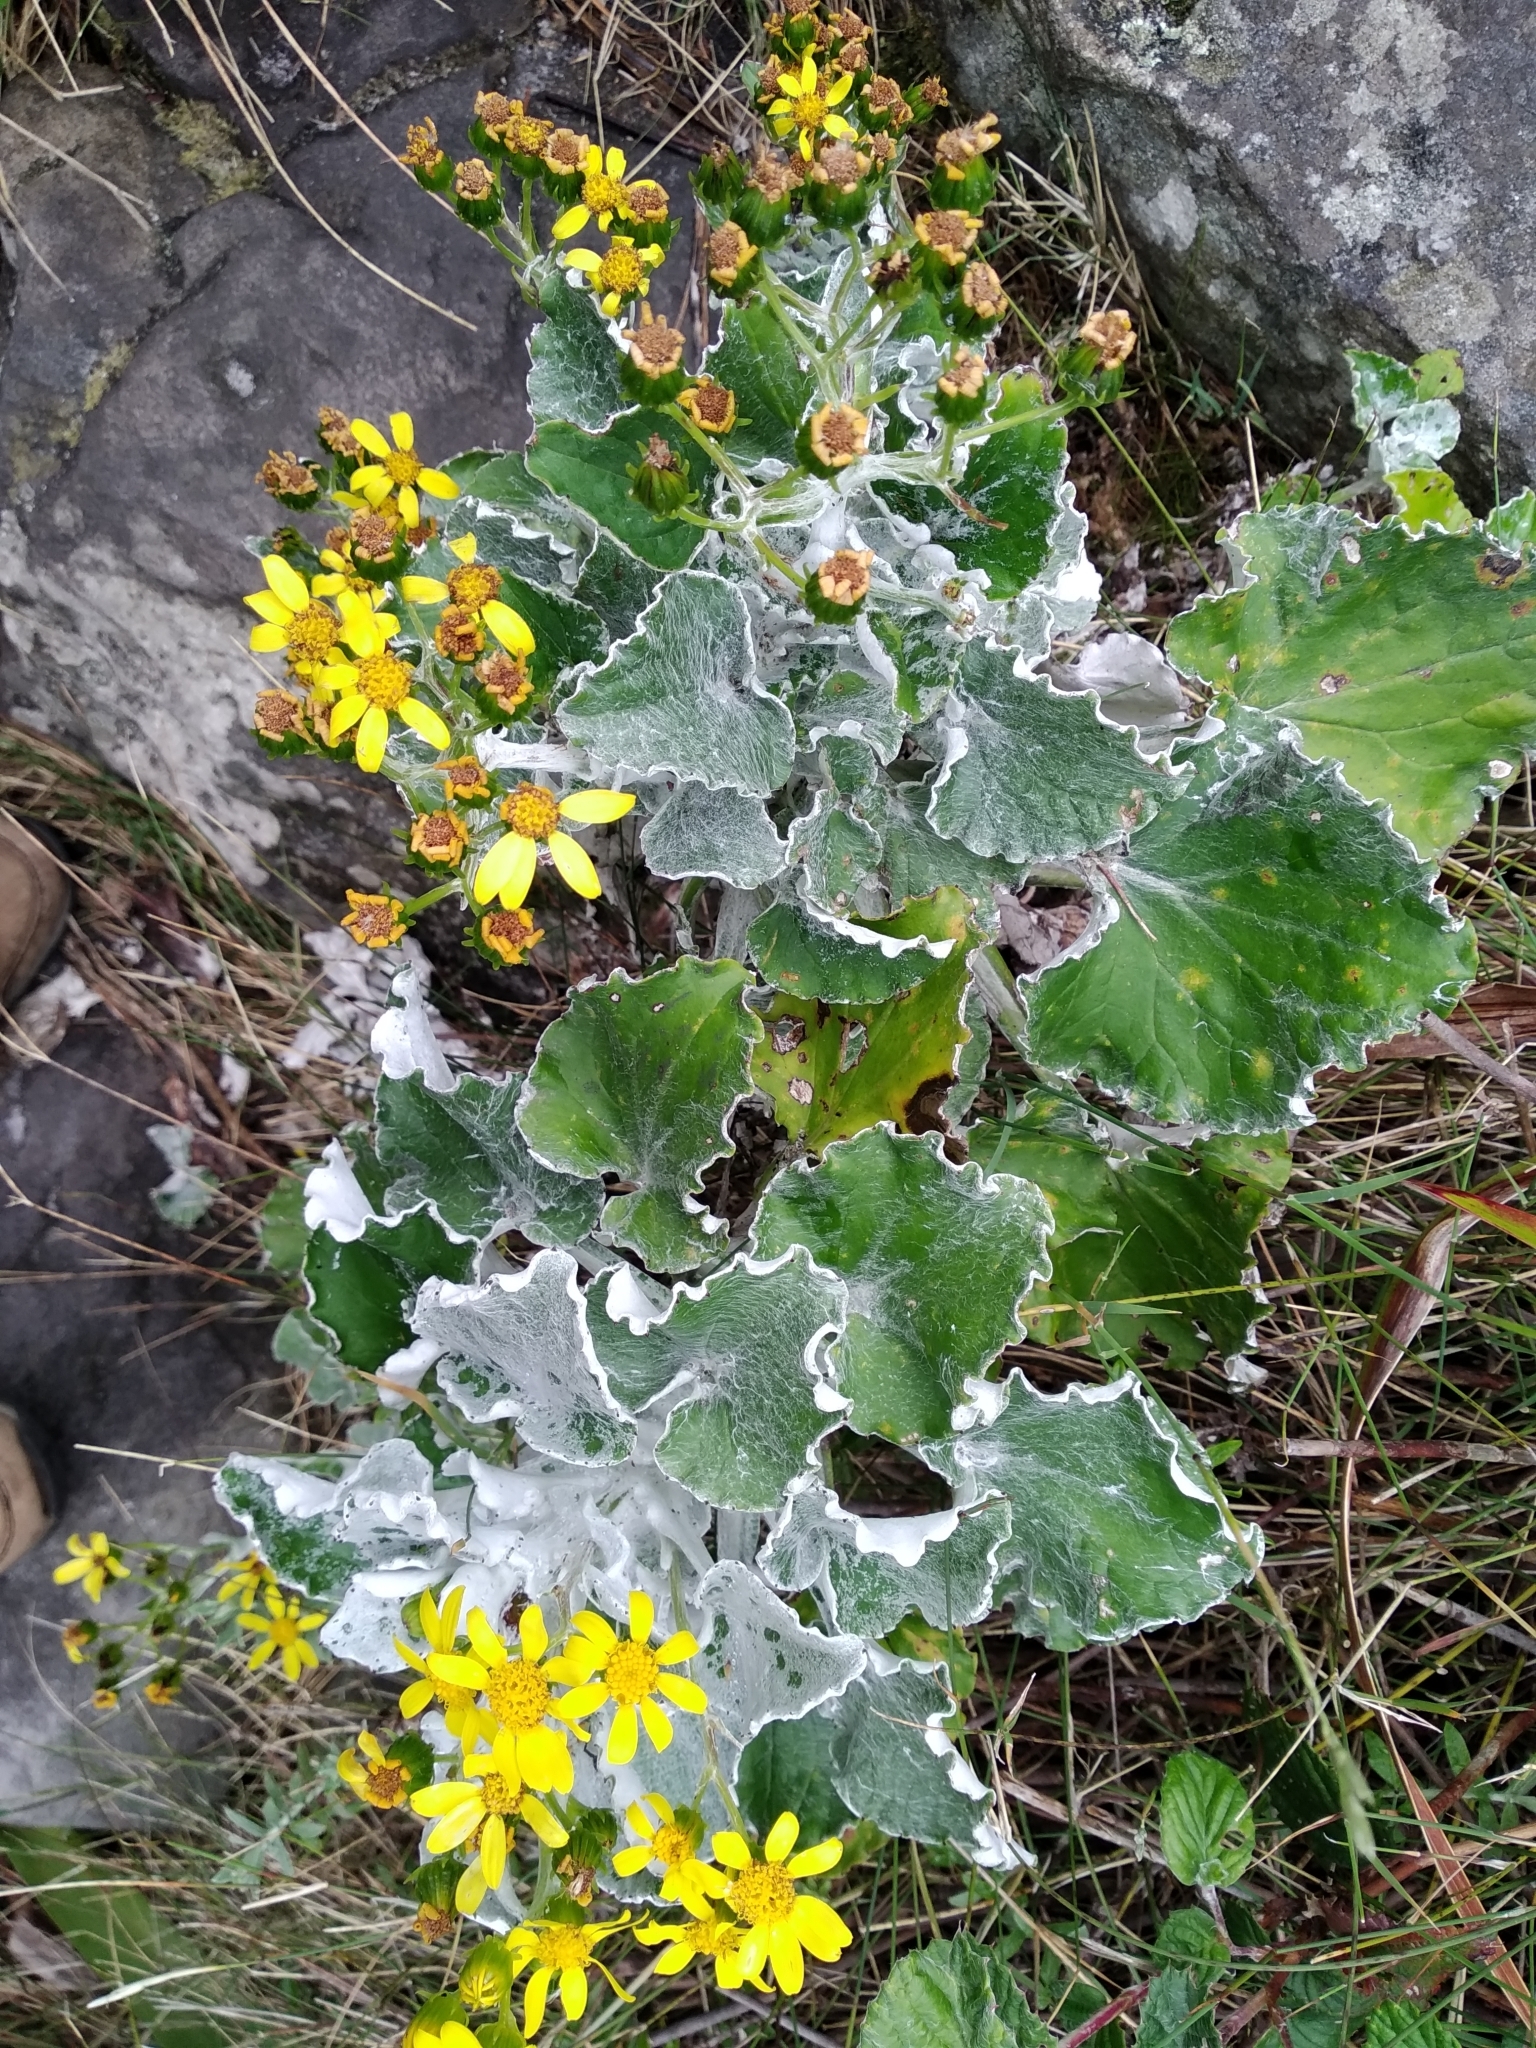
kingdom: Plantae
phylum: Tracheophyta
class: Magnoliopsida
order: Asterales
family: Asteraceae
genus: Senecio
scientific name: Senecio verbascifolius
